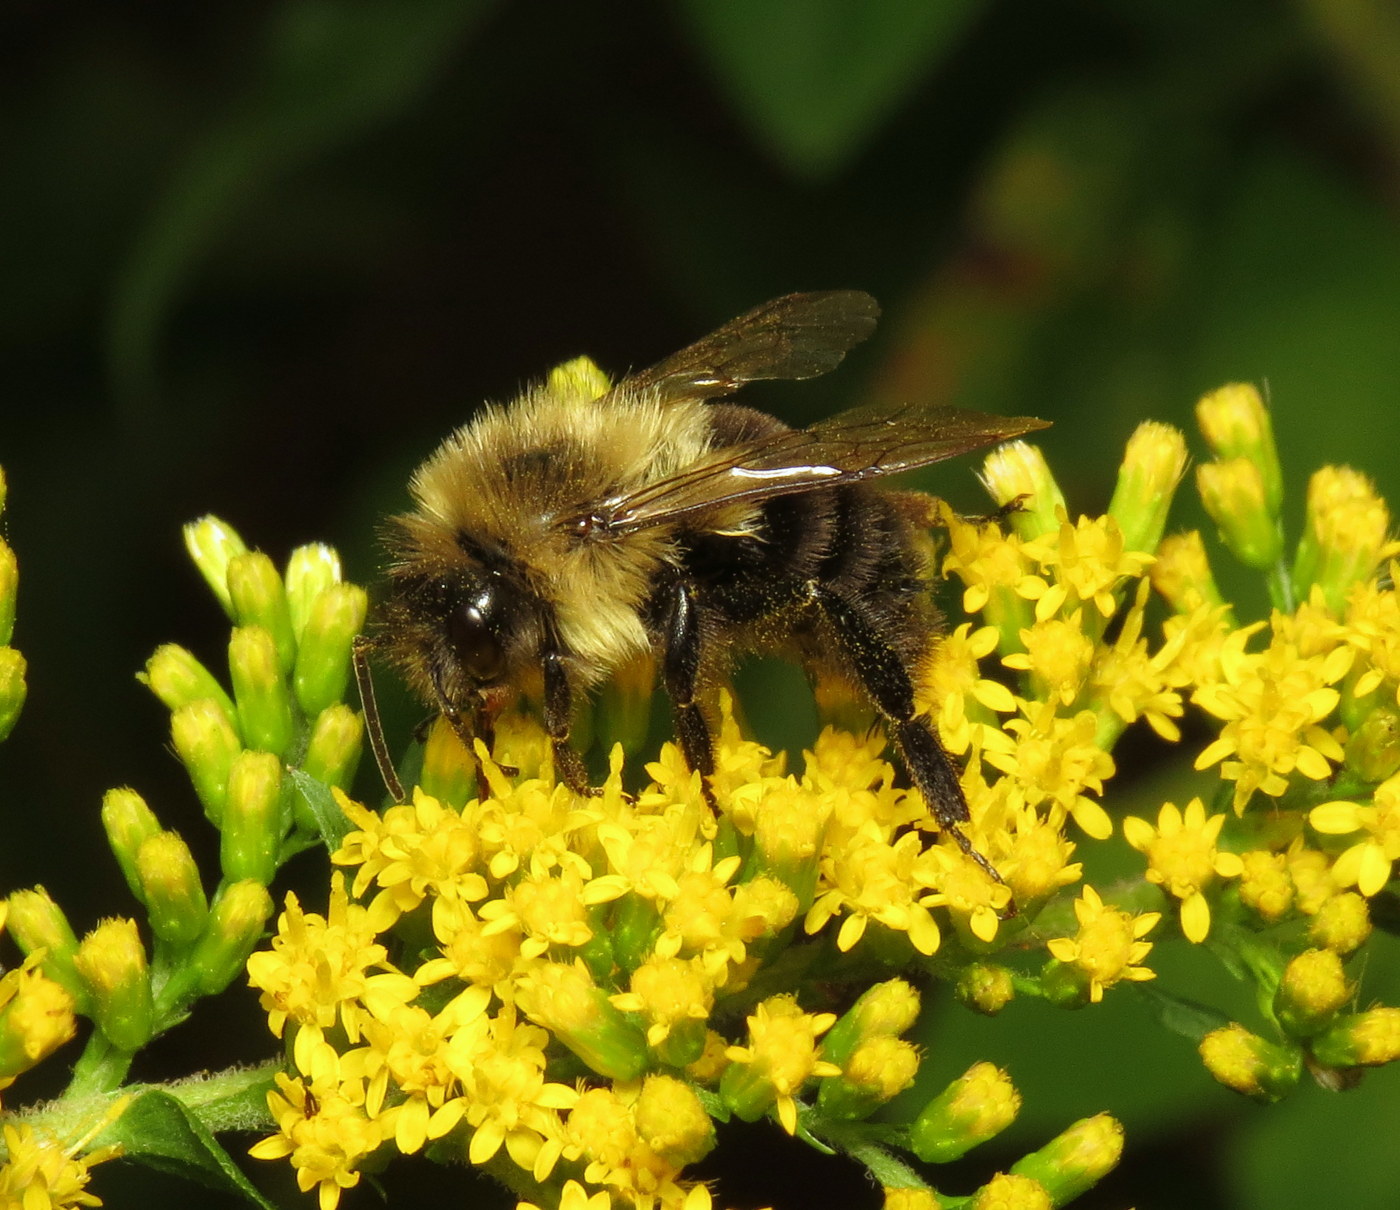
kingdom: Animalia
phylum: Arthropoda
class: Insecta
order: Hymenoptera
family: Apidae
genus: Bombus
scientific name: Bombus impatiens
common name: Common eastern bumble bee
